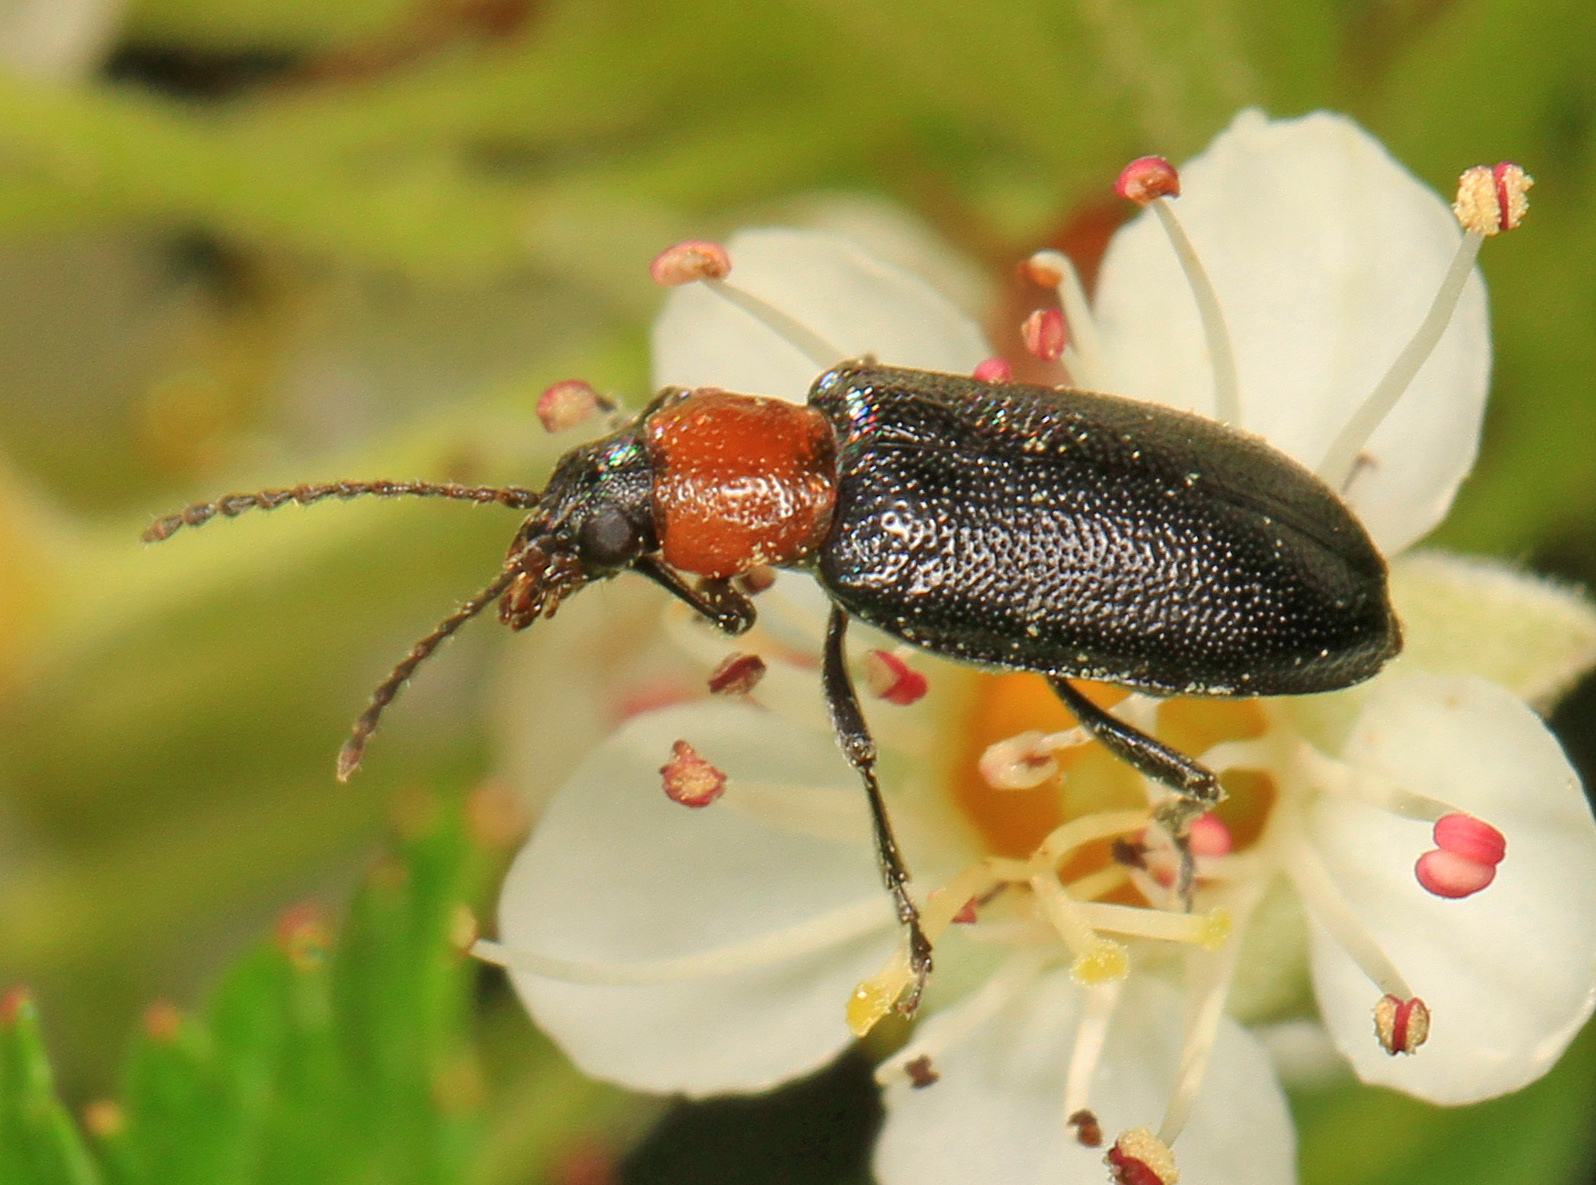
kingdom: Animalia
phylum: Arthropoda
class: Insecta
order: Coleoptera
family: Orsodacnidae
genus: Orsodacne
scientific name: Orsodacne atra
